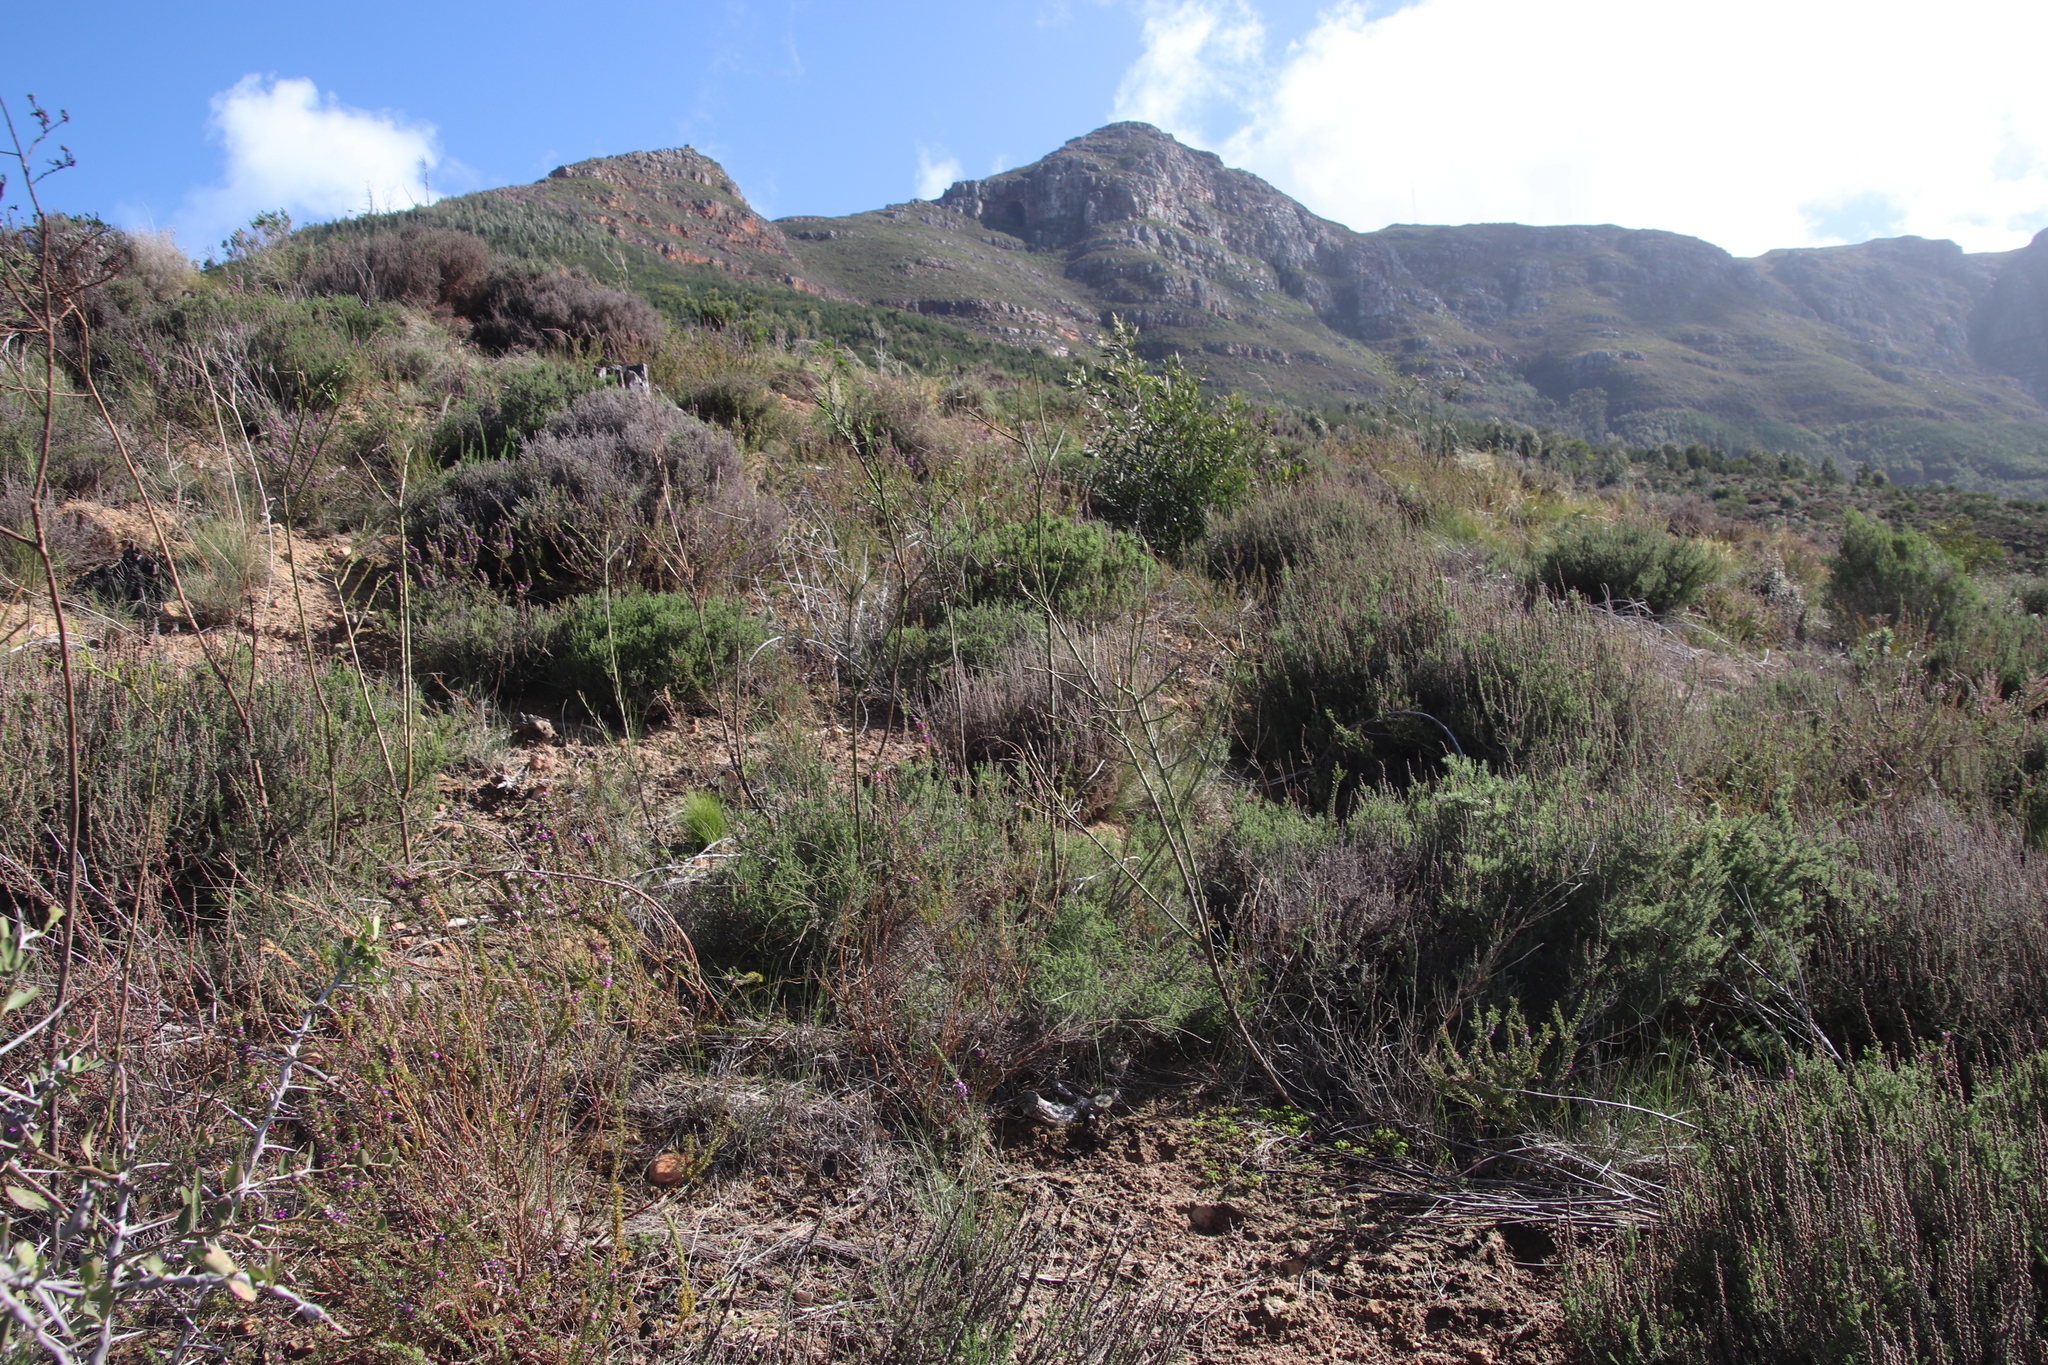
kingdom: Plantae
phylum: Tracheophyta
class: Magnoliopsida
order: Santalales
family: Thesiaceae
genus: Thesium
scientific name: Thesium strictum
